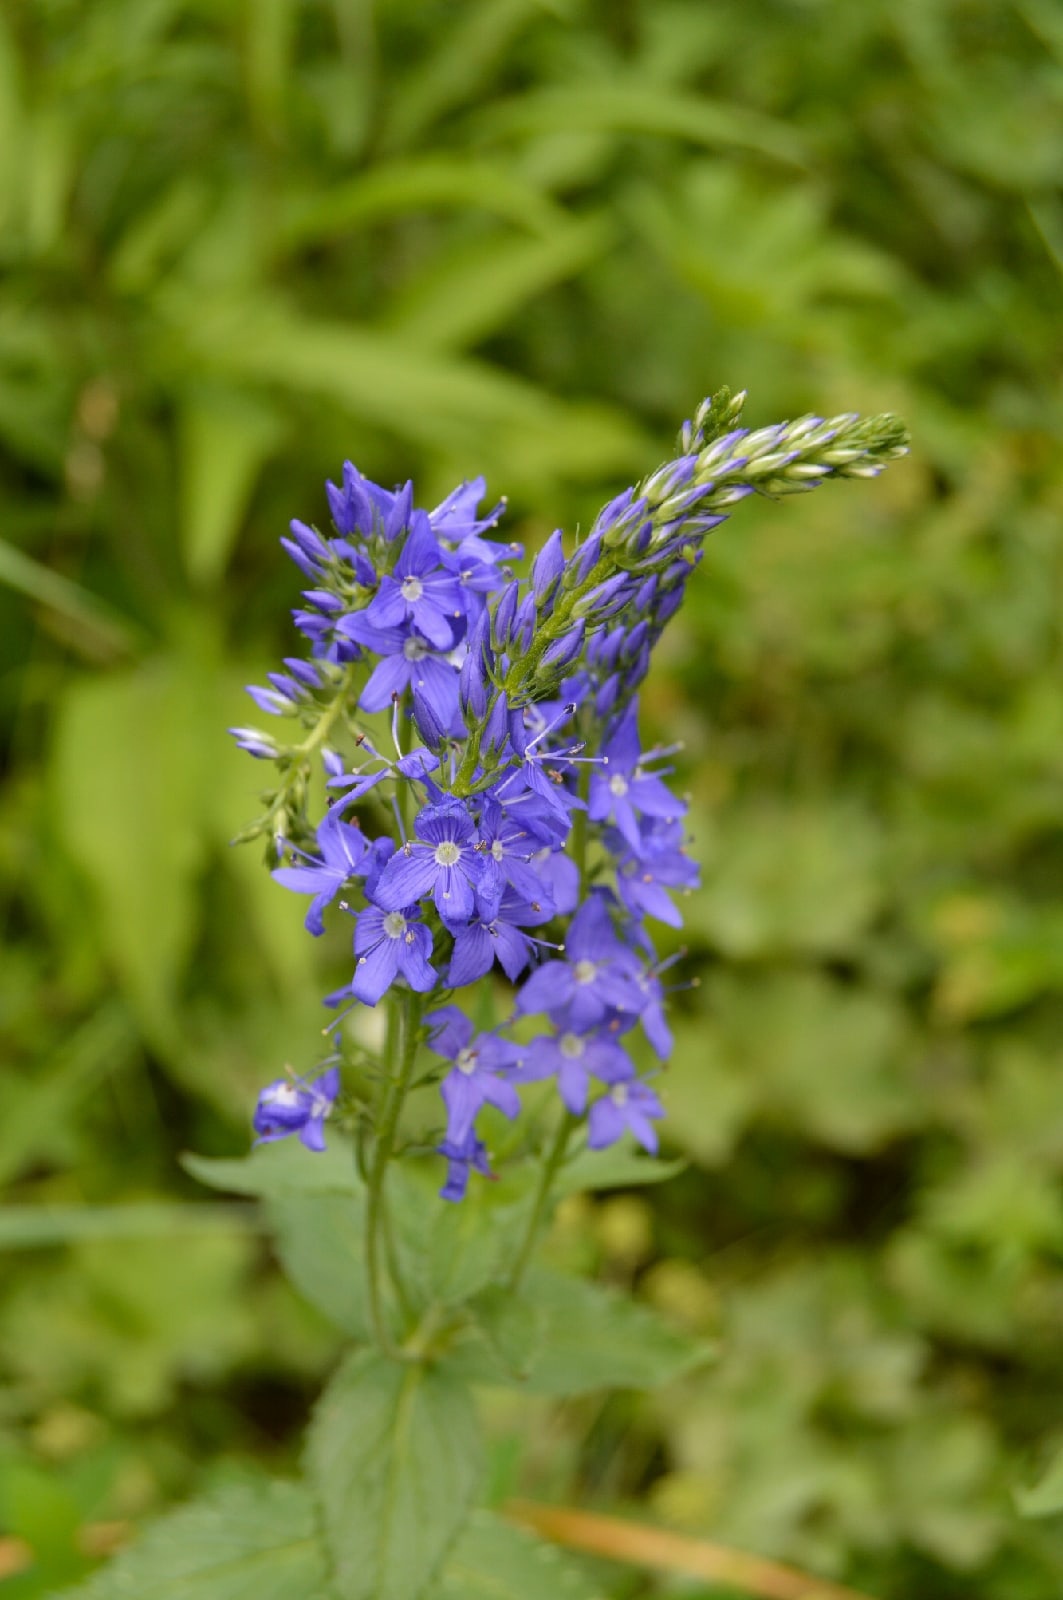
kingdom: Plantae
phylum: Tracheophyta
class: Magnoliopsida
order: Lamiales
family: Plantaginaceae
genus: Veronica
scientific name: Veronica teucrium
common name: Large speedwell
